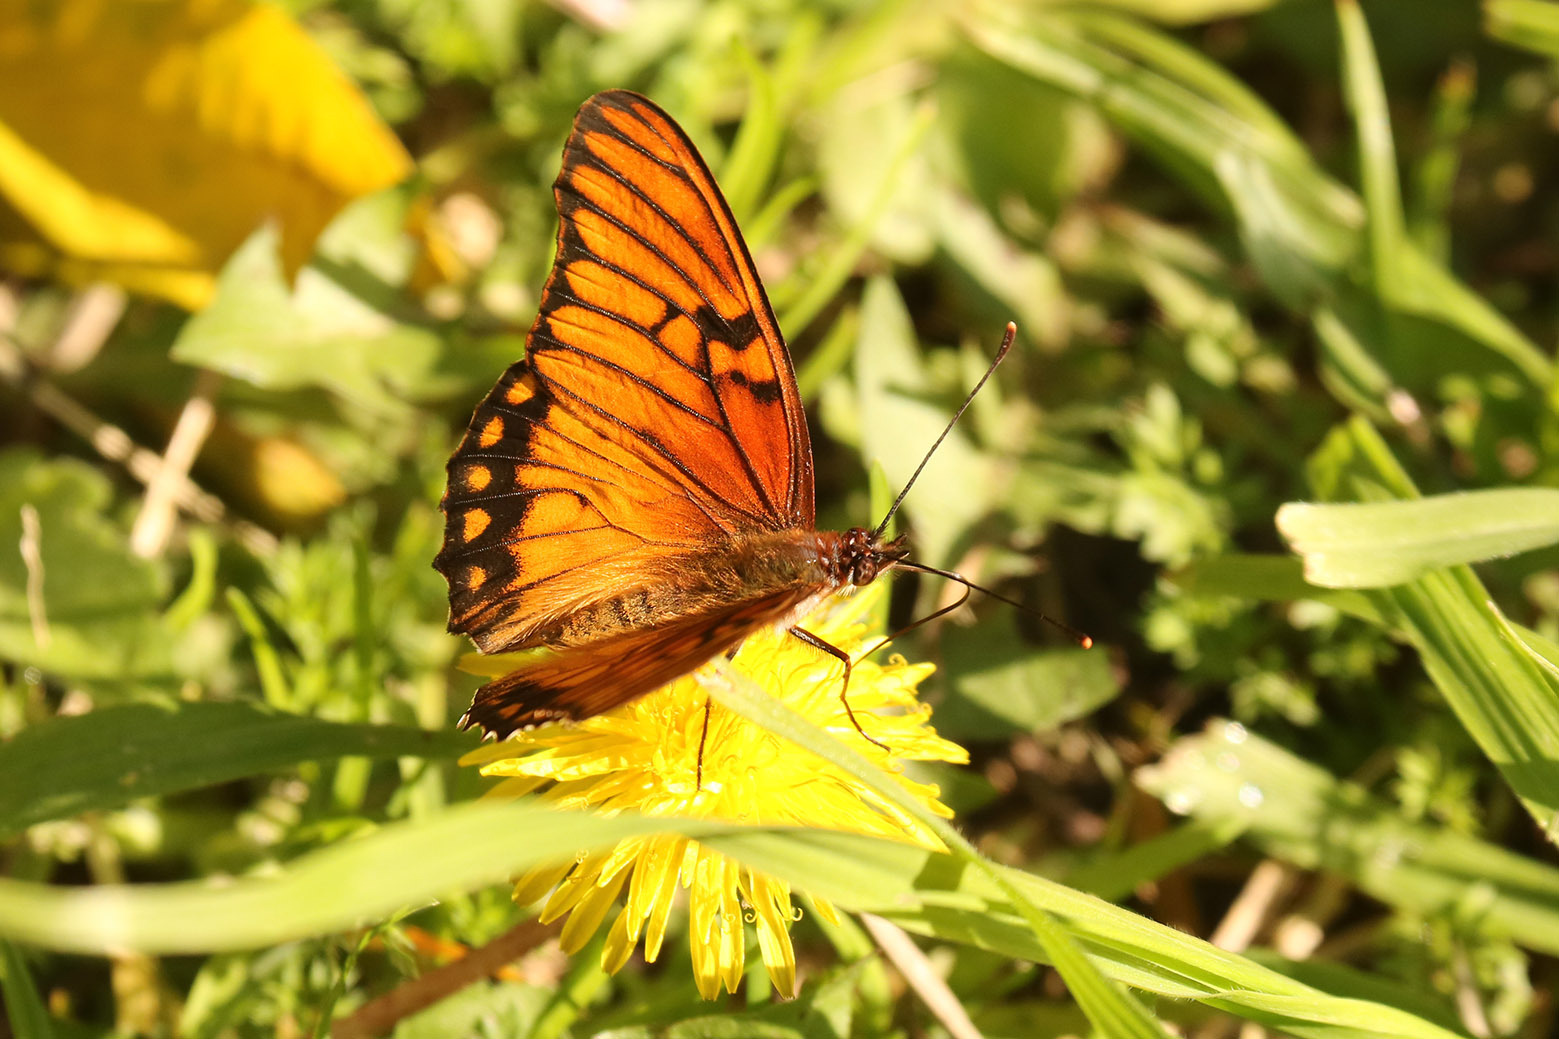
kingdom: Animalia
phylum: Arthropoda
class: Insecta
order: Lepidoptera
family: Nymphalidae
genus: Dione
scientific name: Dione moneta
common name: Mexican silverspot
